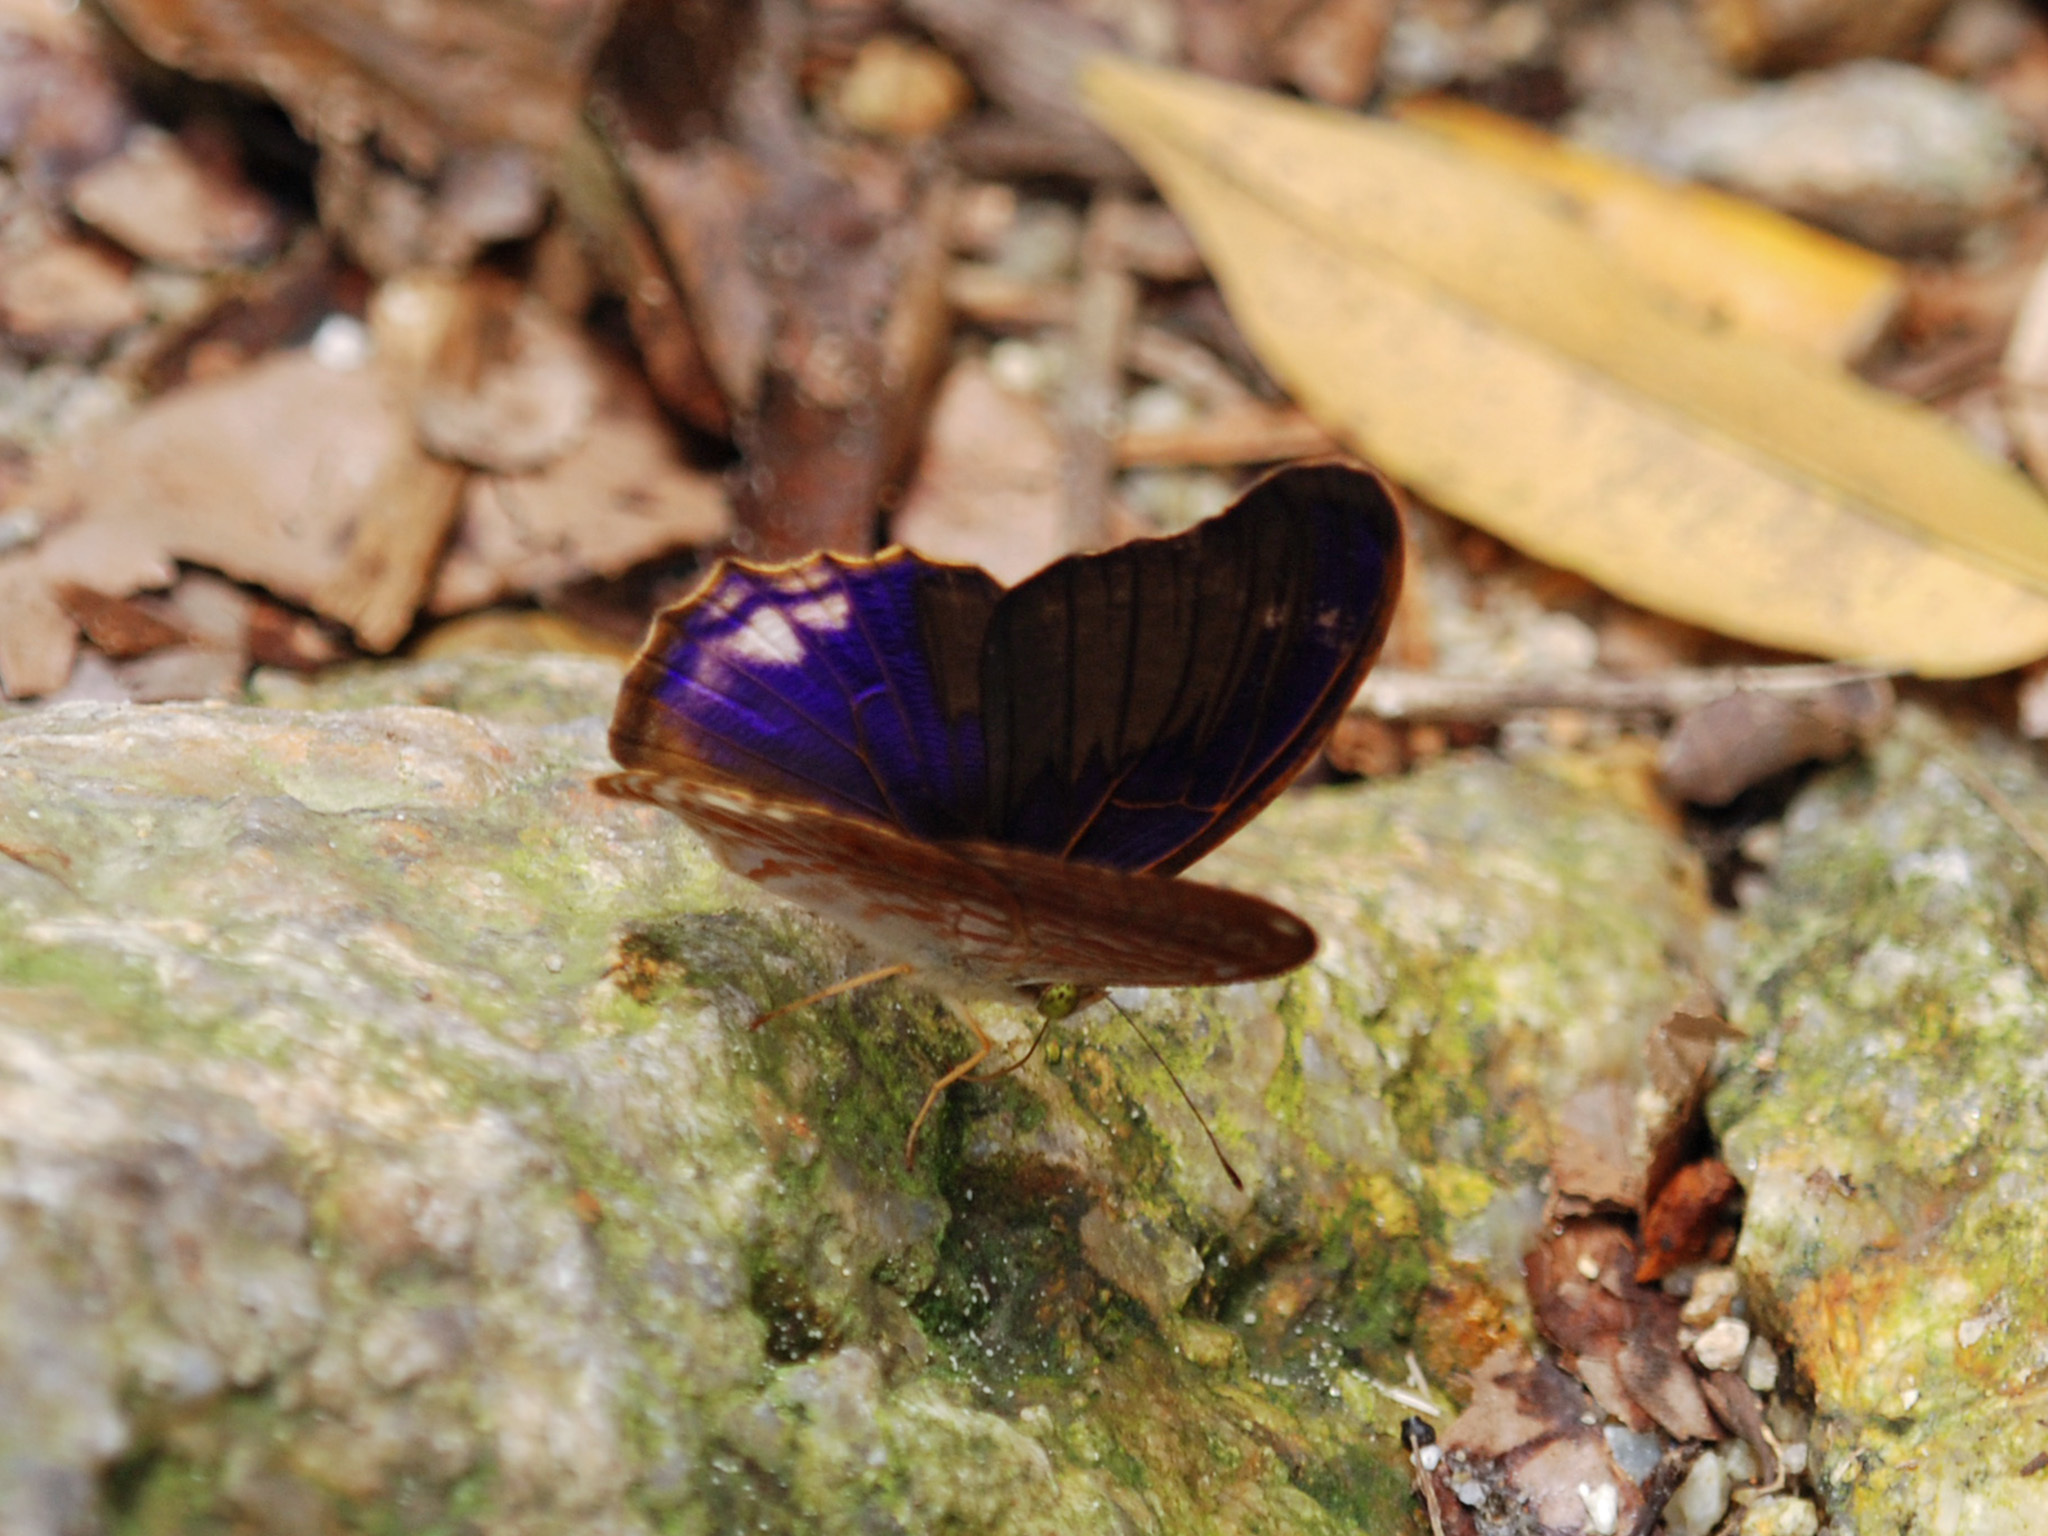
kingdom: Animalia
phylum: Arthropoda
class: Insecta
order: Lepidoptera
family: Nymphalidae
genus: Terinos
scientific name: Terinos terpander
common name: Royal assyrian
